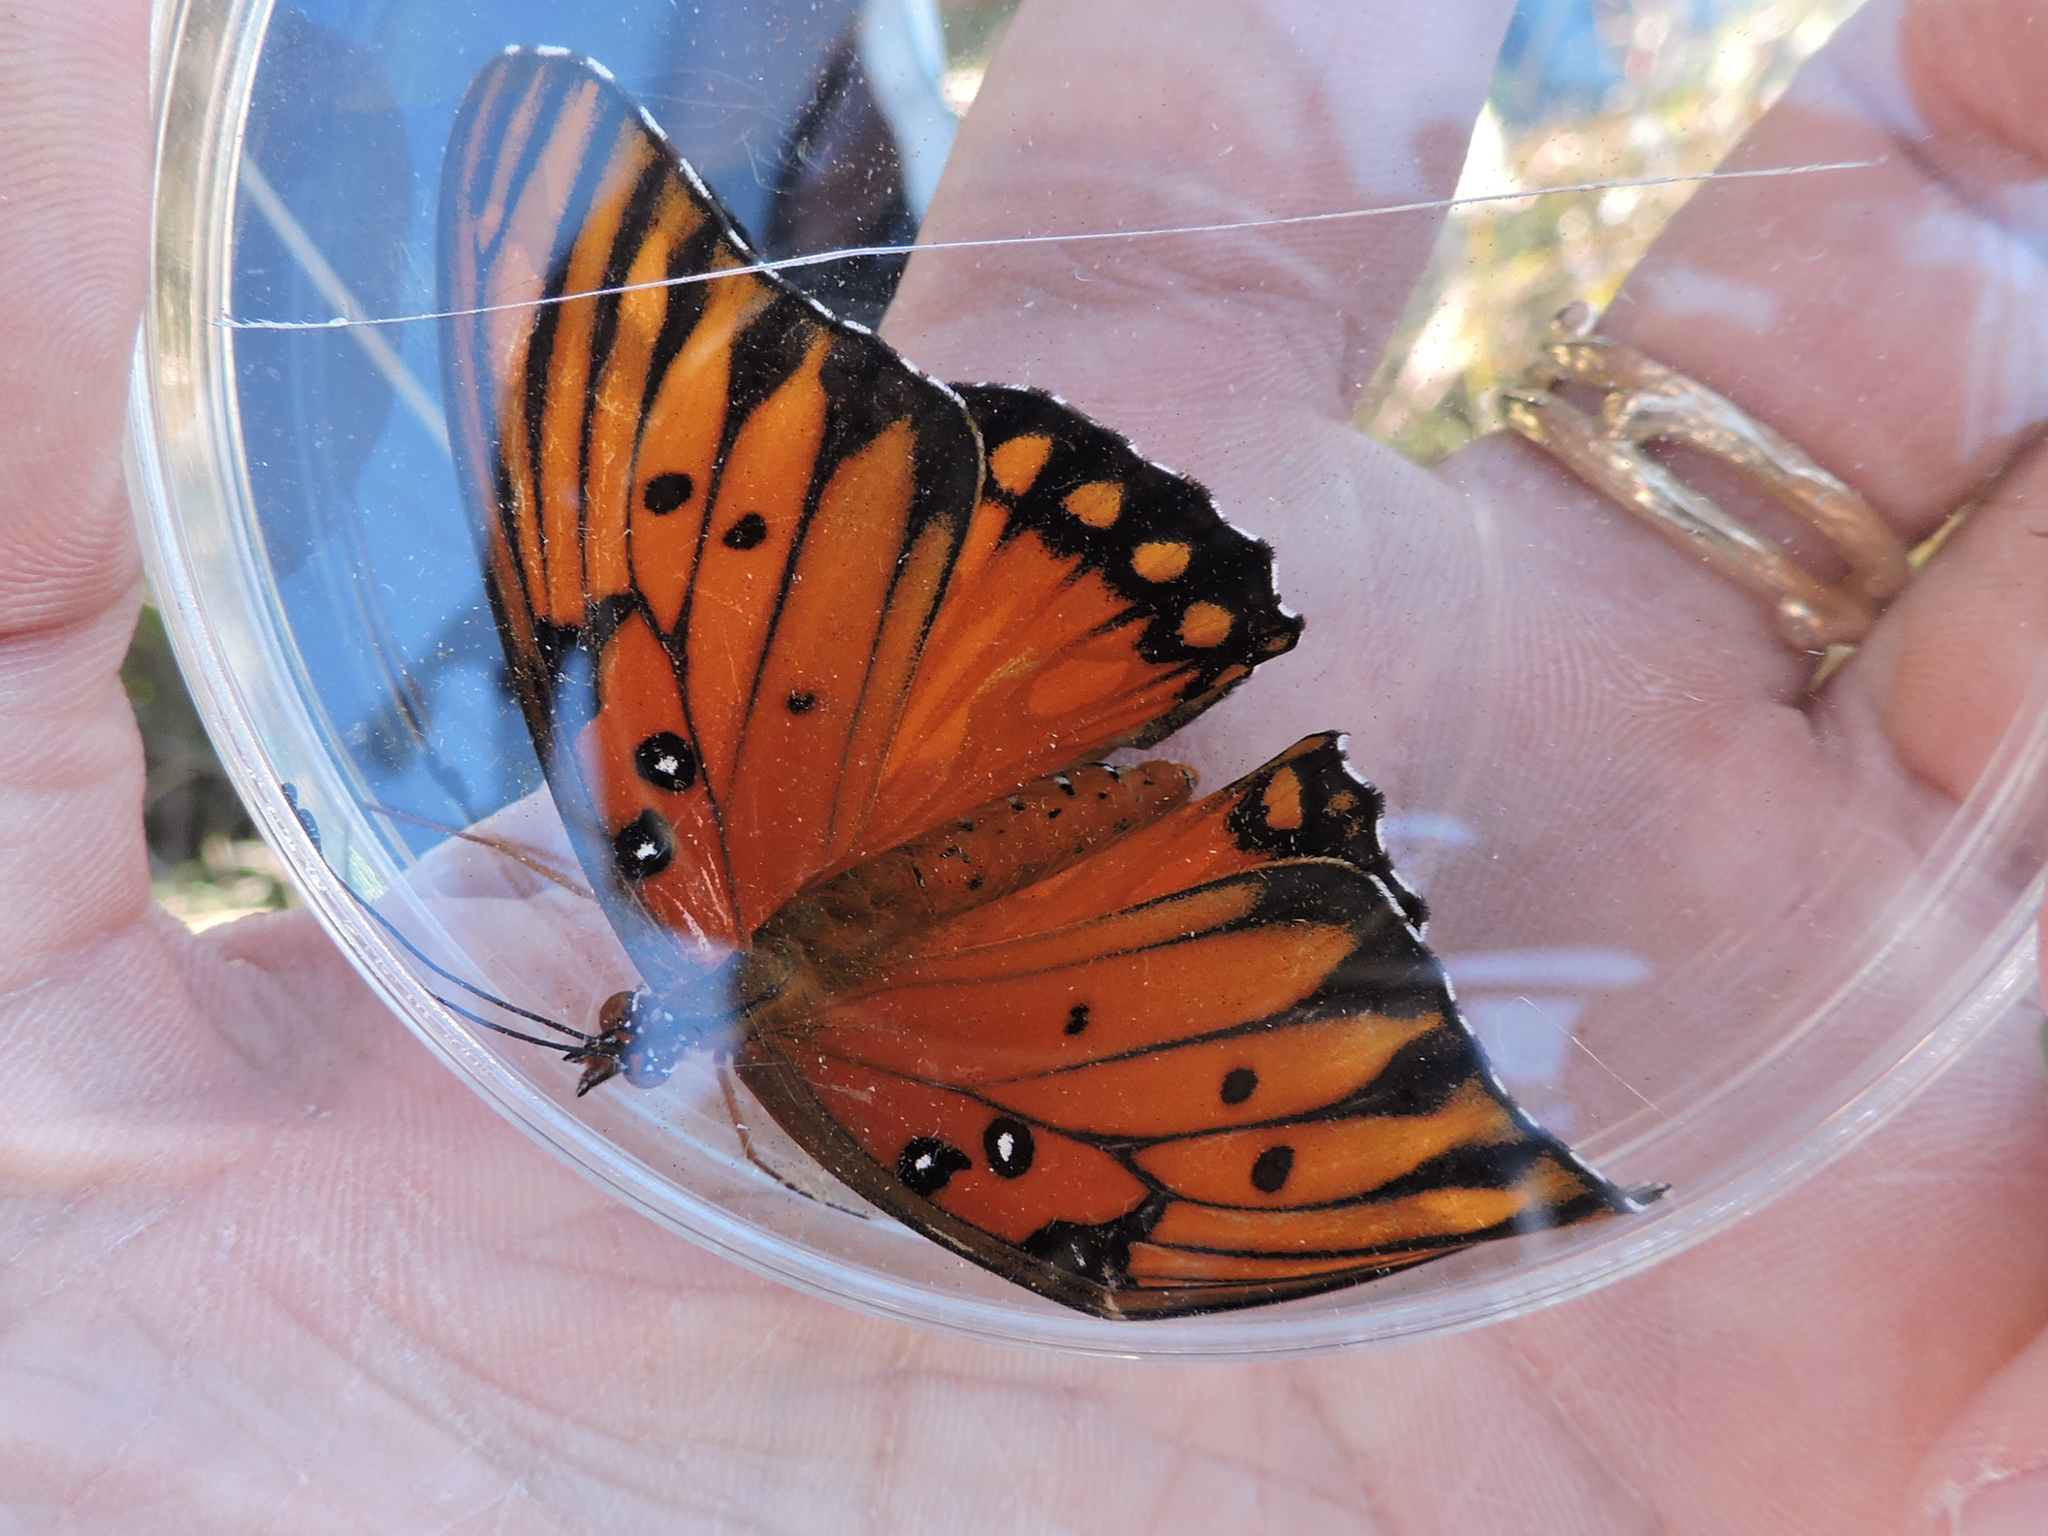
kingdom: Animalia
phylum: Arthropoda
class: Insecta
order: Lepidoptera
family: Nymphalidae
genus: Dione
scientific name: Dione vanillae
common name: Gulf fritillary
